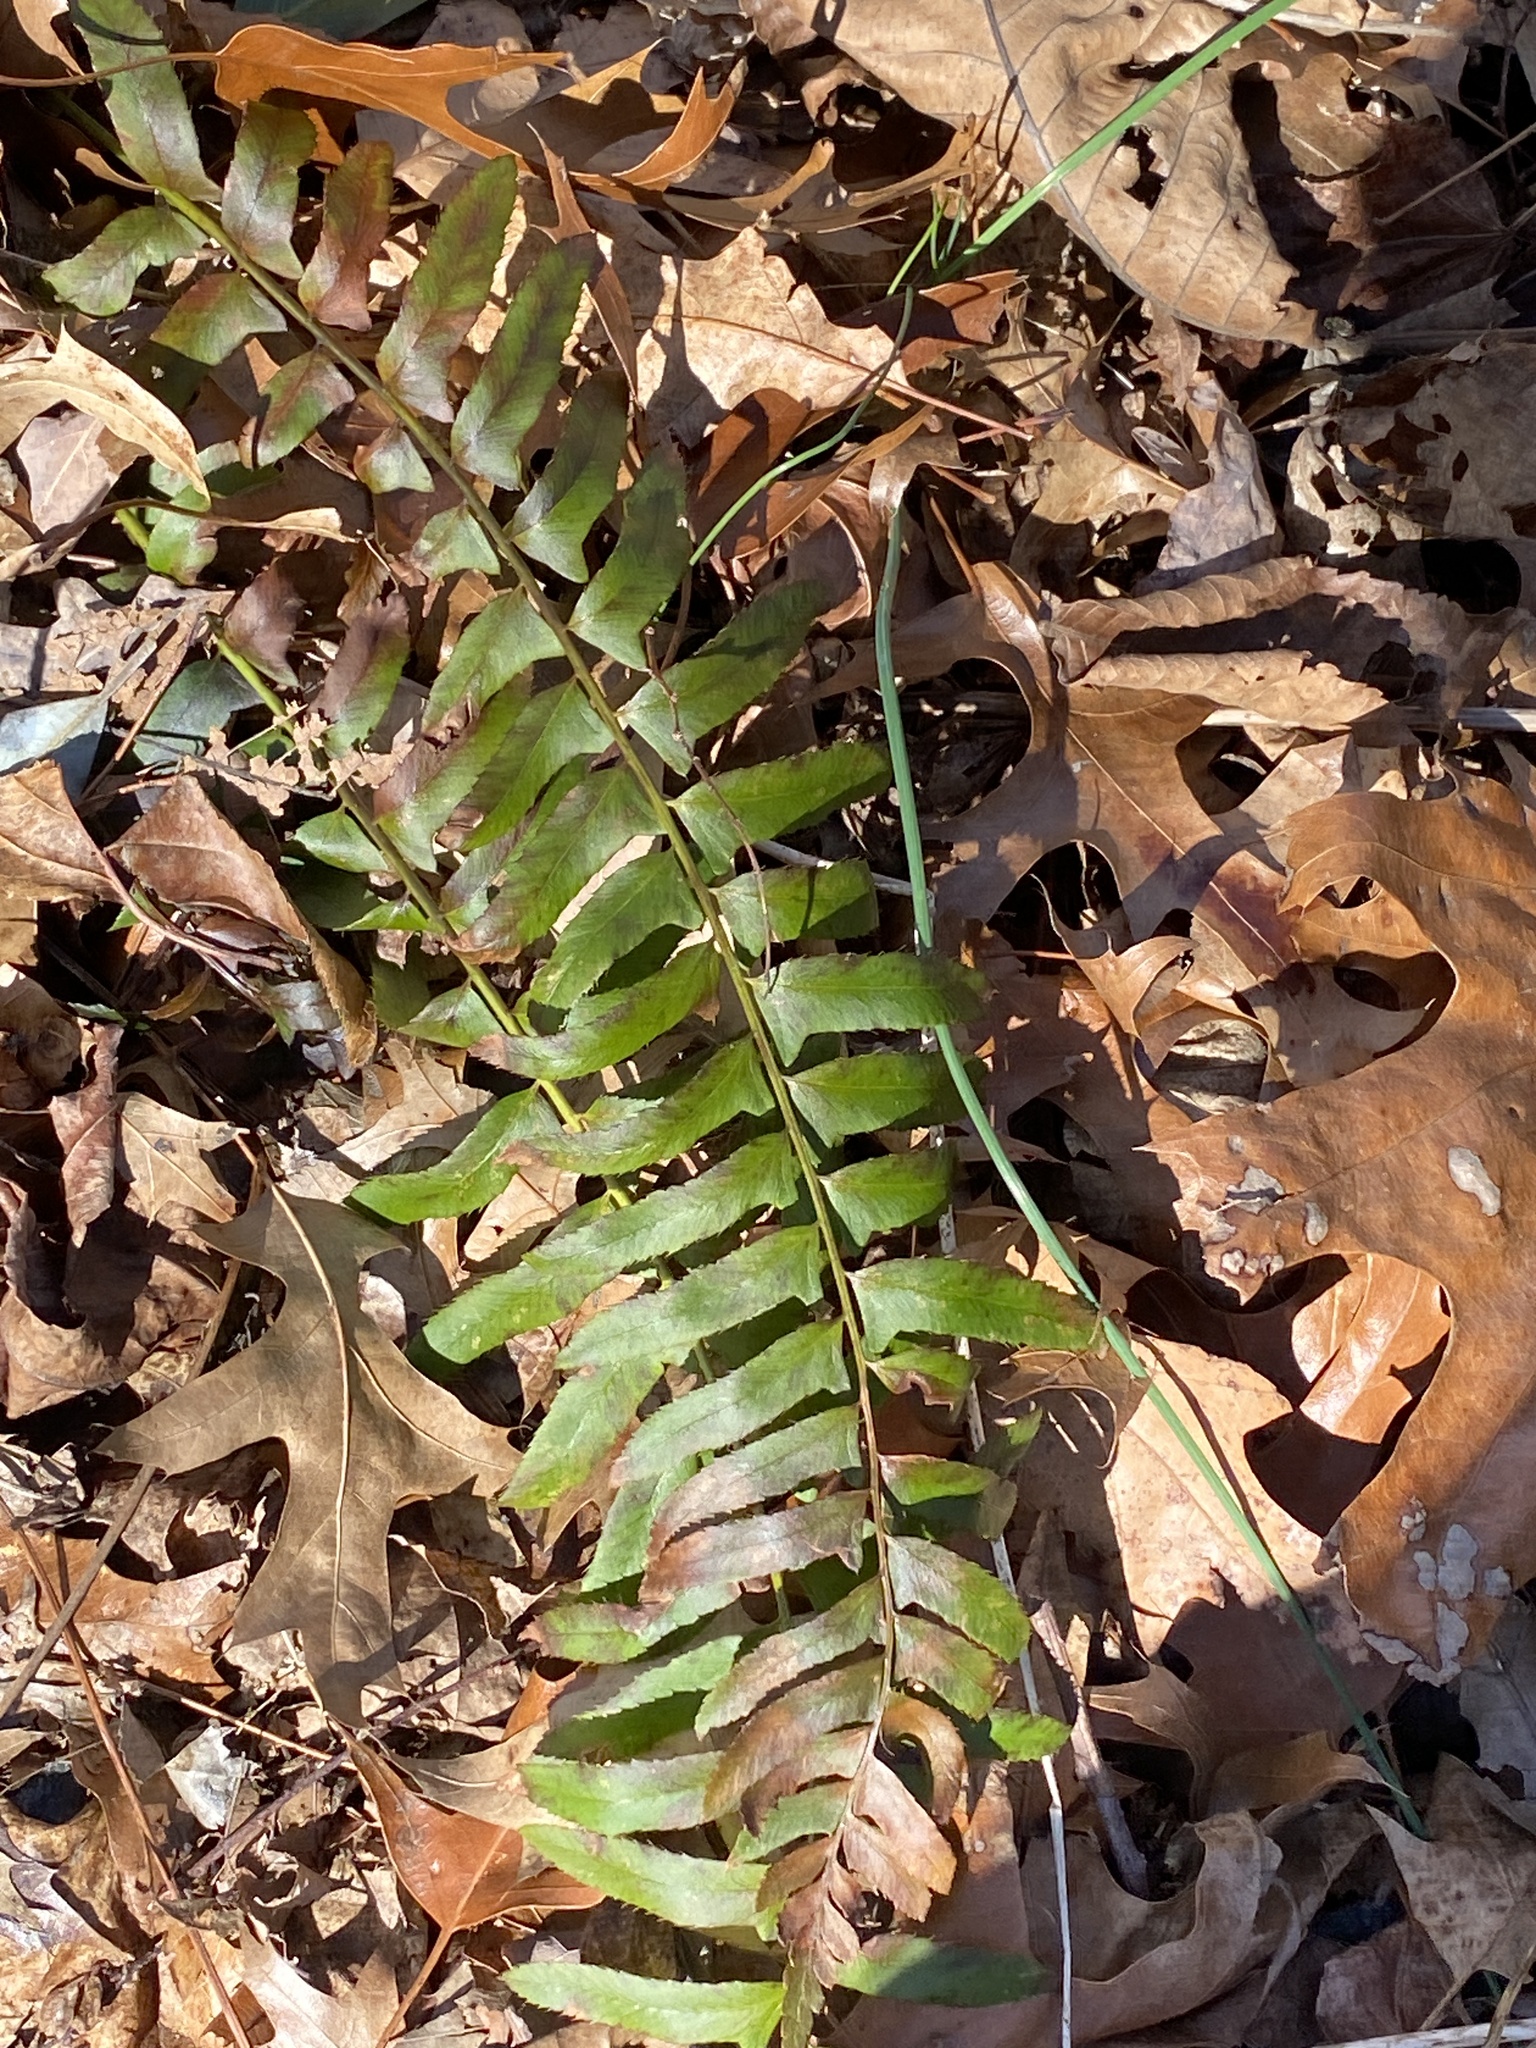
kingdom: Plantae
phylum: Tracheophyta
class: Polypodiopsida
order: Polypodiales
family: Dryopteridaceae
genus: Polystichum
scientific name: Polystichum acrostichoides
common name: Christmas fern
